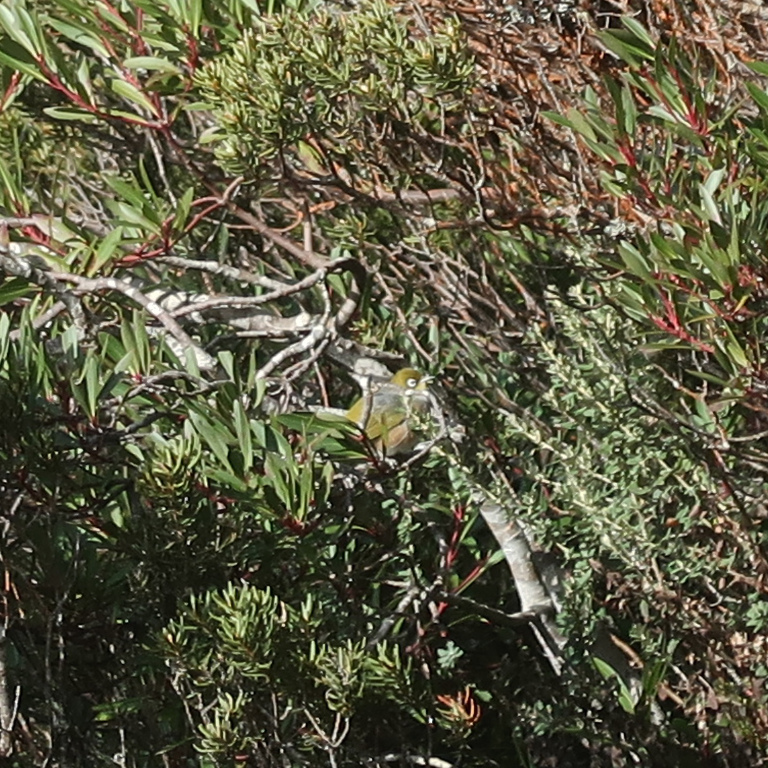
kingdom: Animalia
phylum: Chordata
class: Aves
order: Passeriformes
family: Zosteropidae
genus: Zosterops
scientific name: Zosterops lateralis
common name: Silvereye
